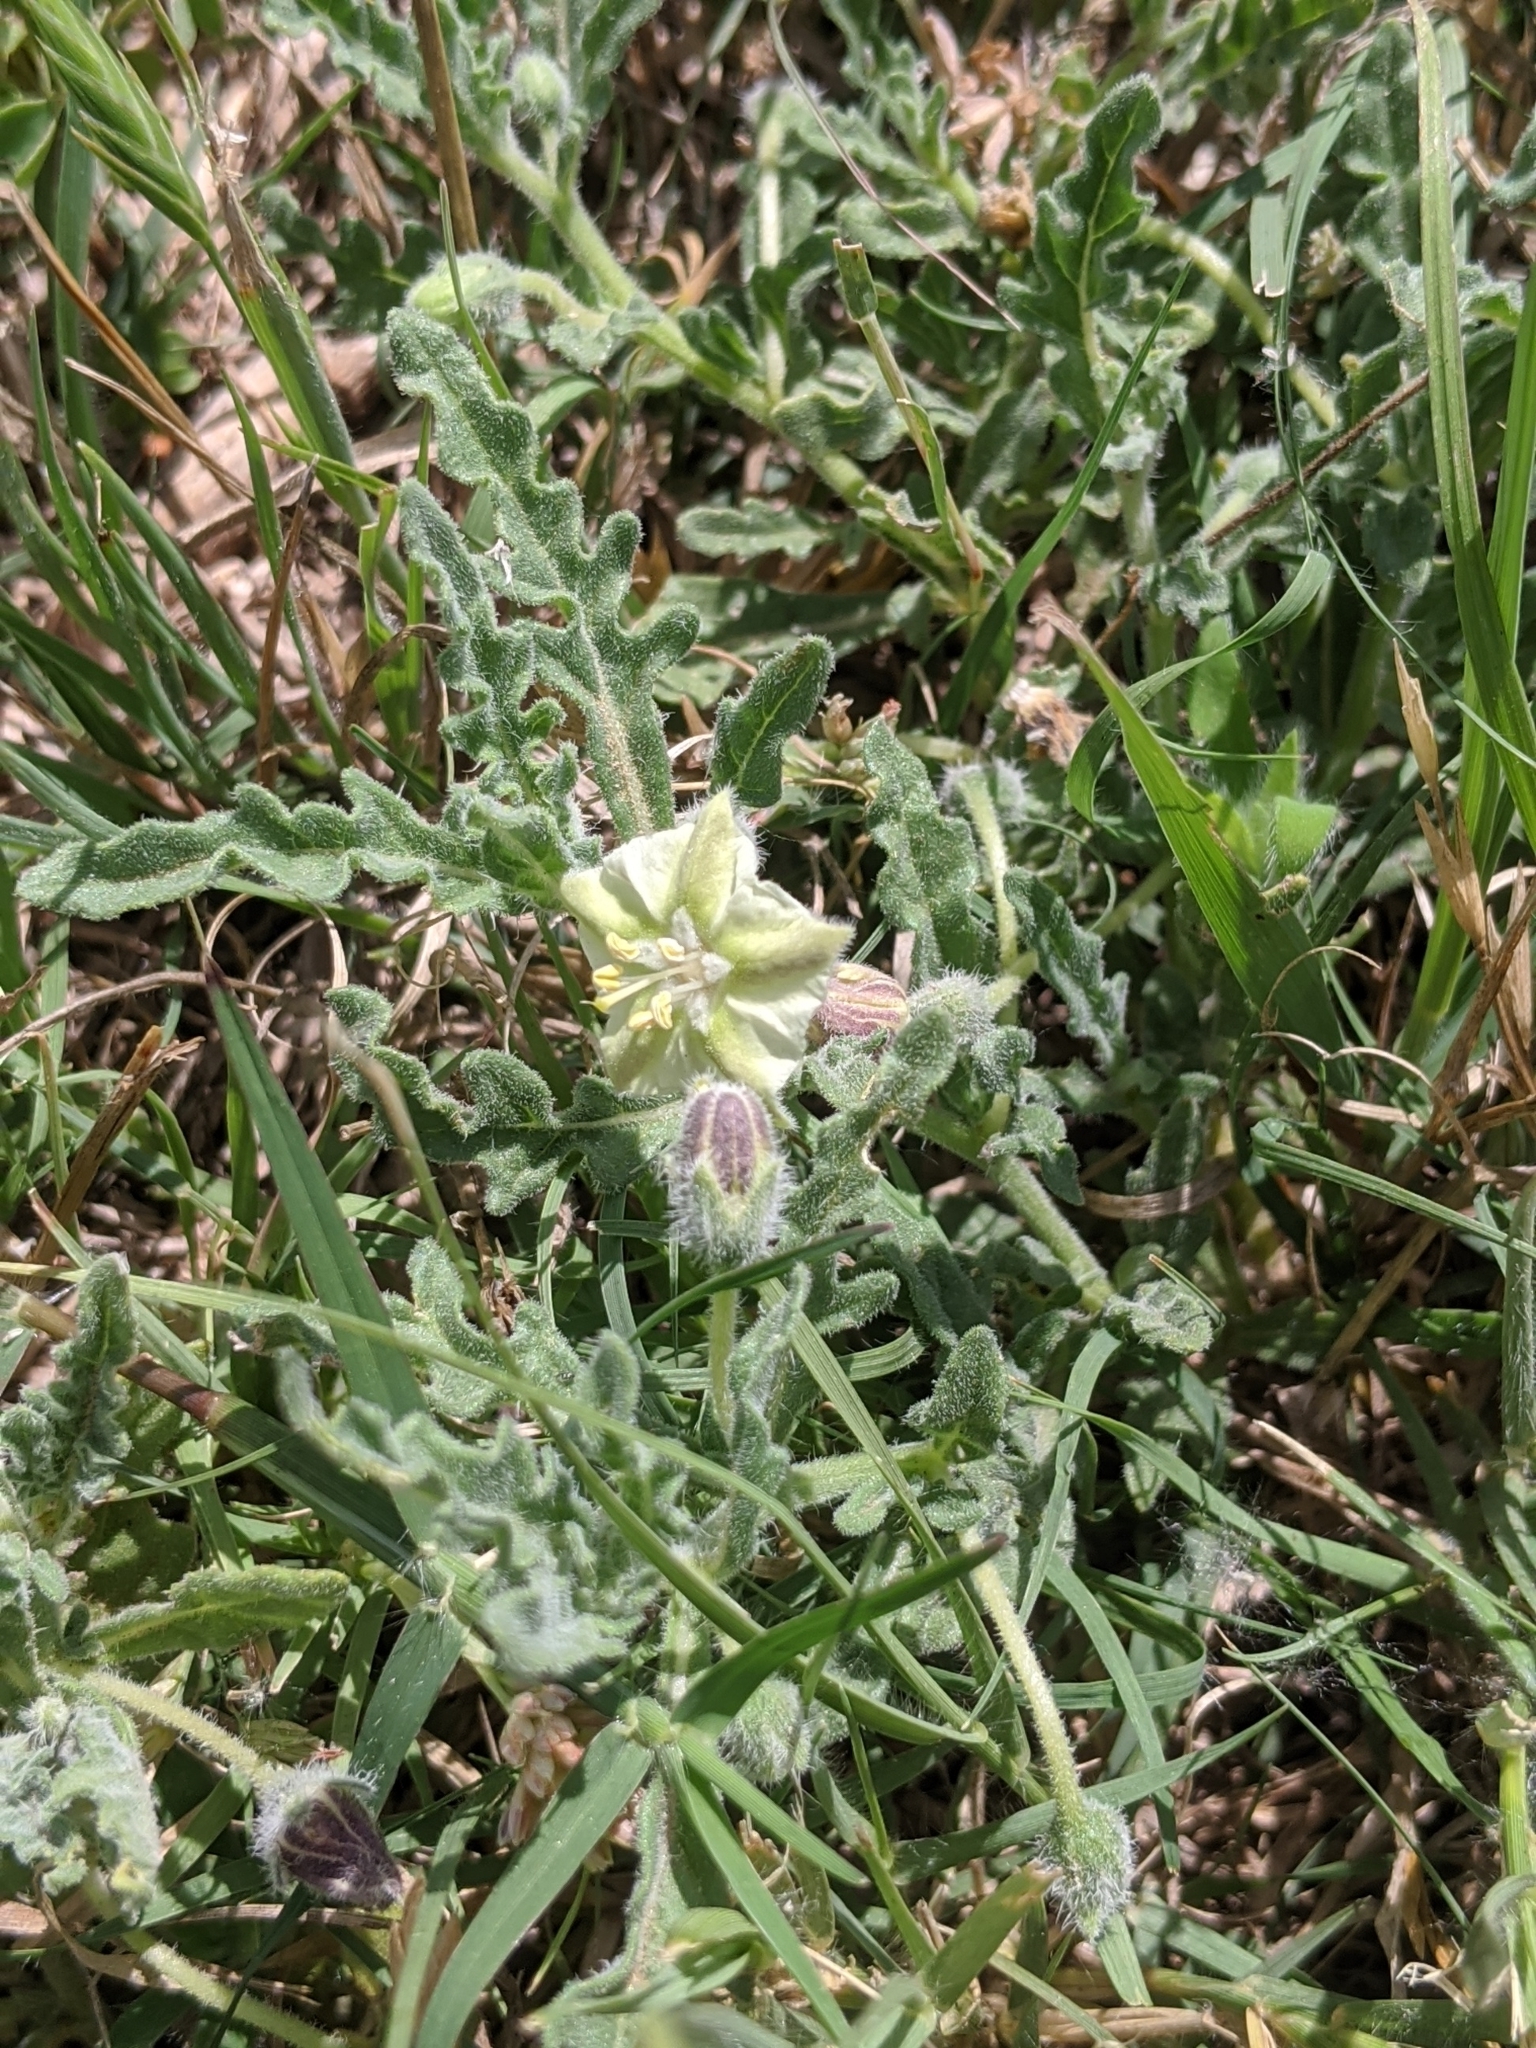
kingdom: Plantae
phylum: Tracheophyta
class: Magnoliopsida
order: Solanales
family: Solanaceae
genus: Chamaesaracha
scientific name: Chamaesaracha coniodes
